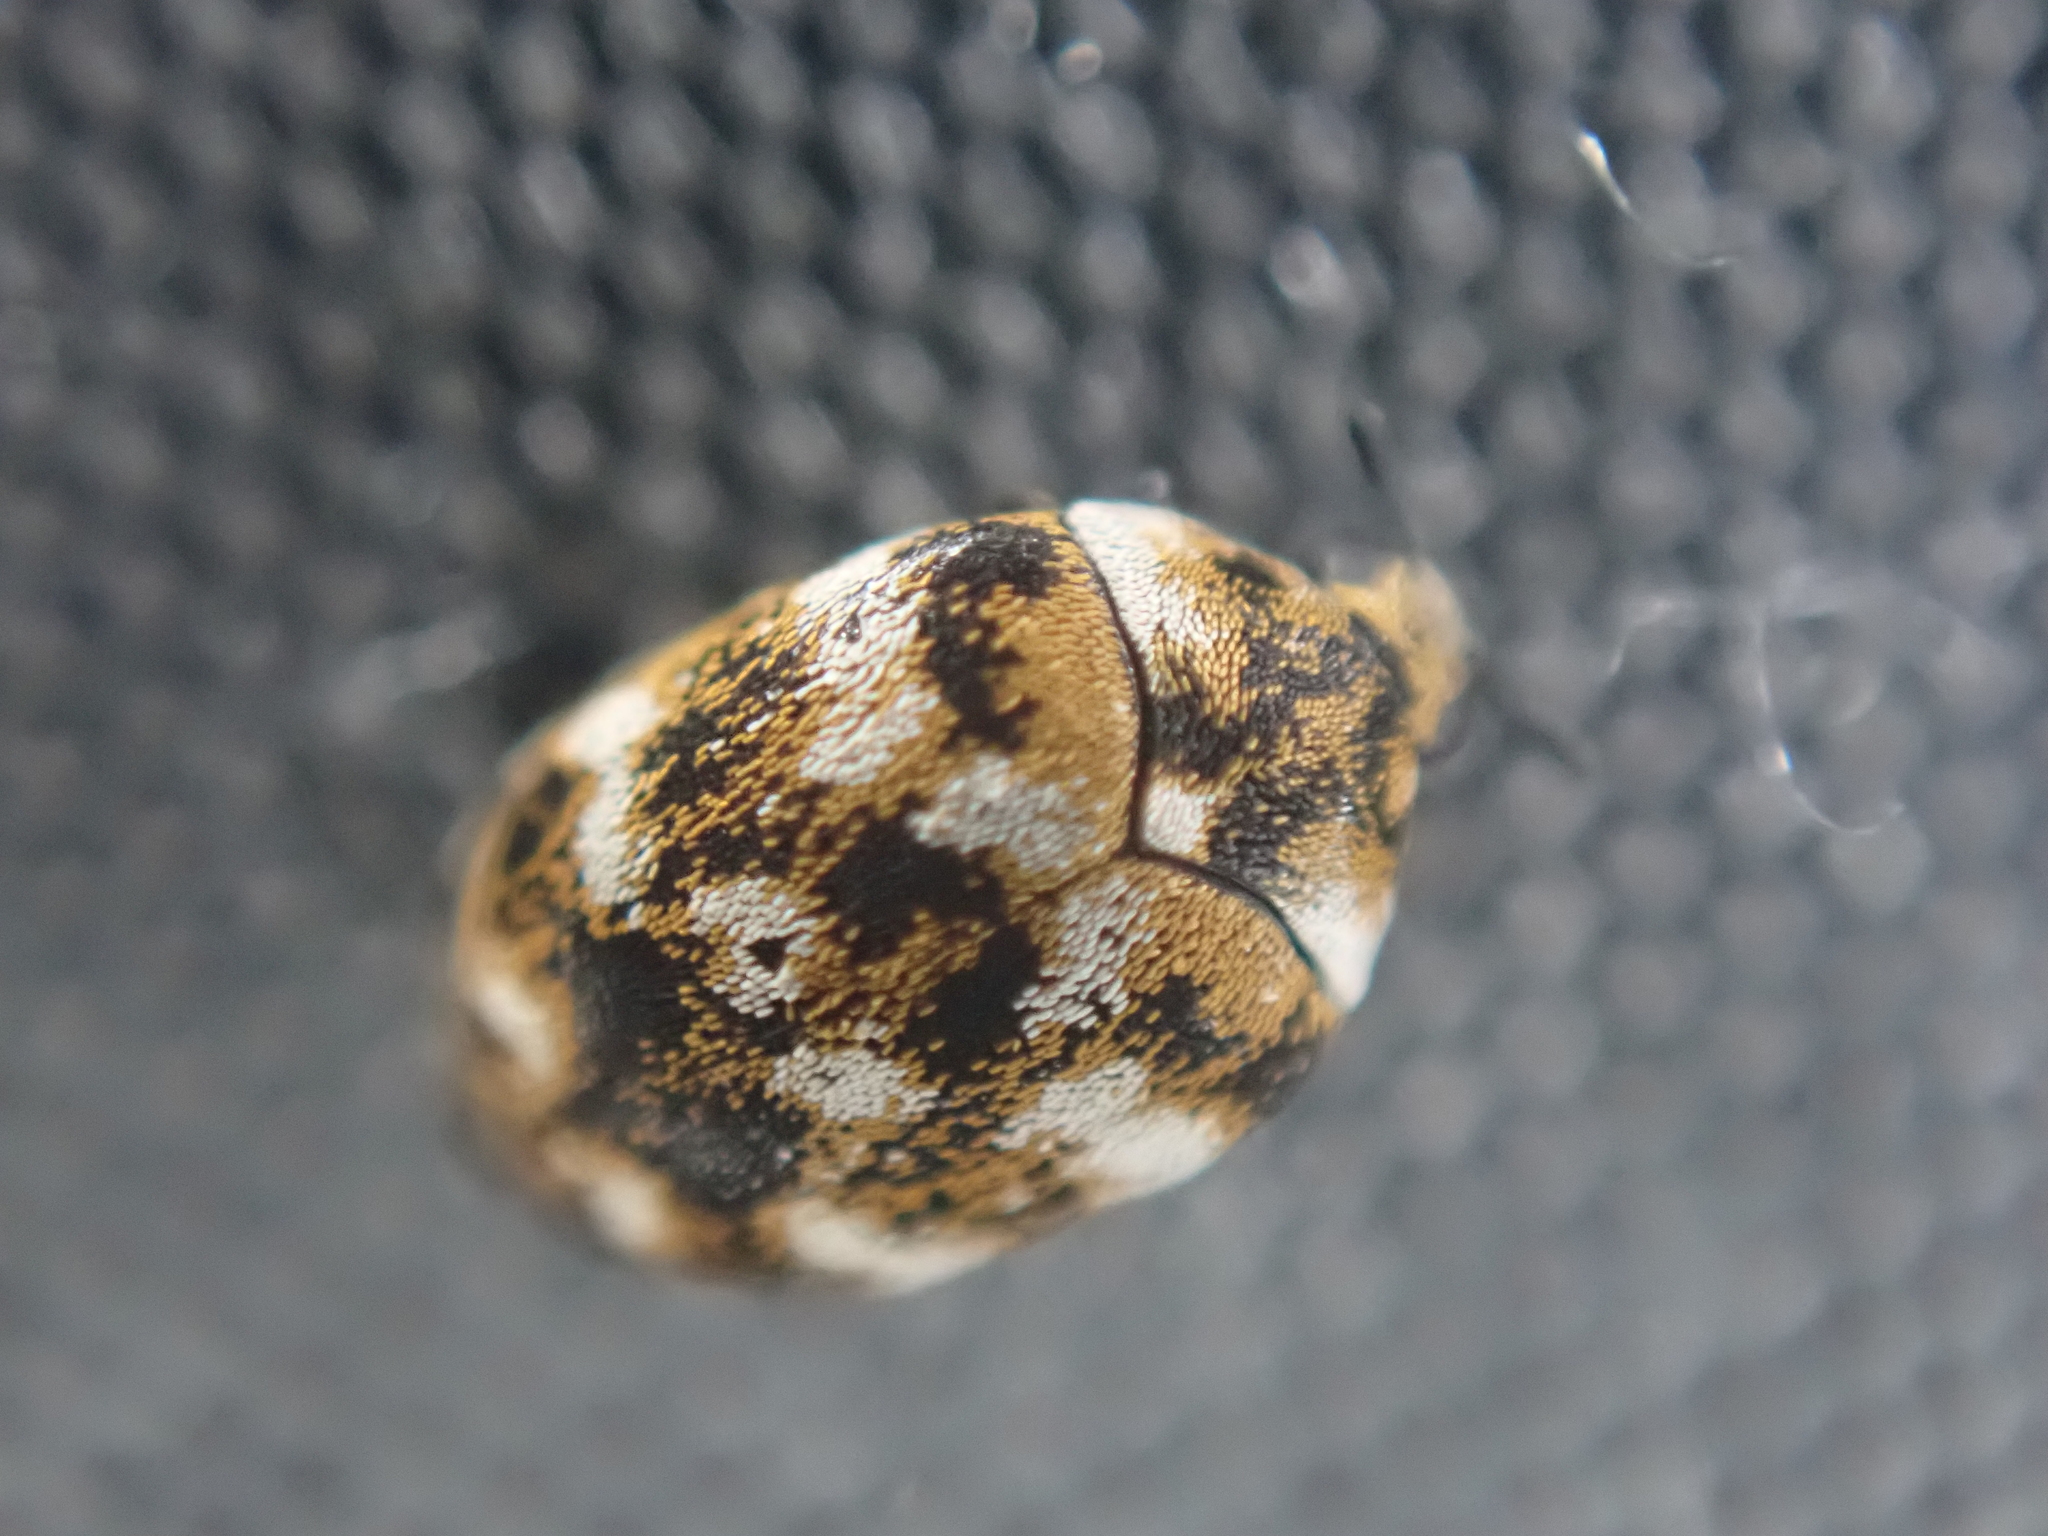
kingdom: Animalia
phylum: Arthropoda
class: Insecta
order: Coleoptera
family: Dermestidae
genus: Anthrenus
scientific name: Anthrenus verbasci
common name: Varied carpet beetle
